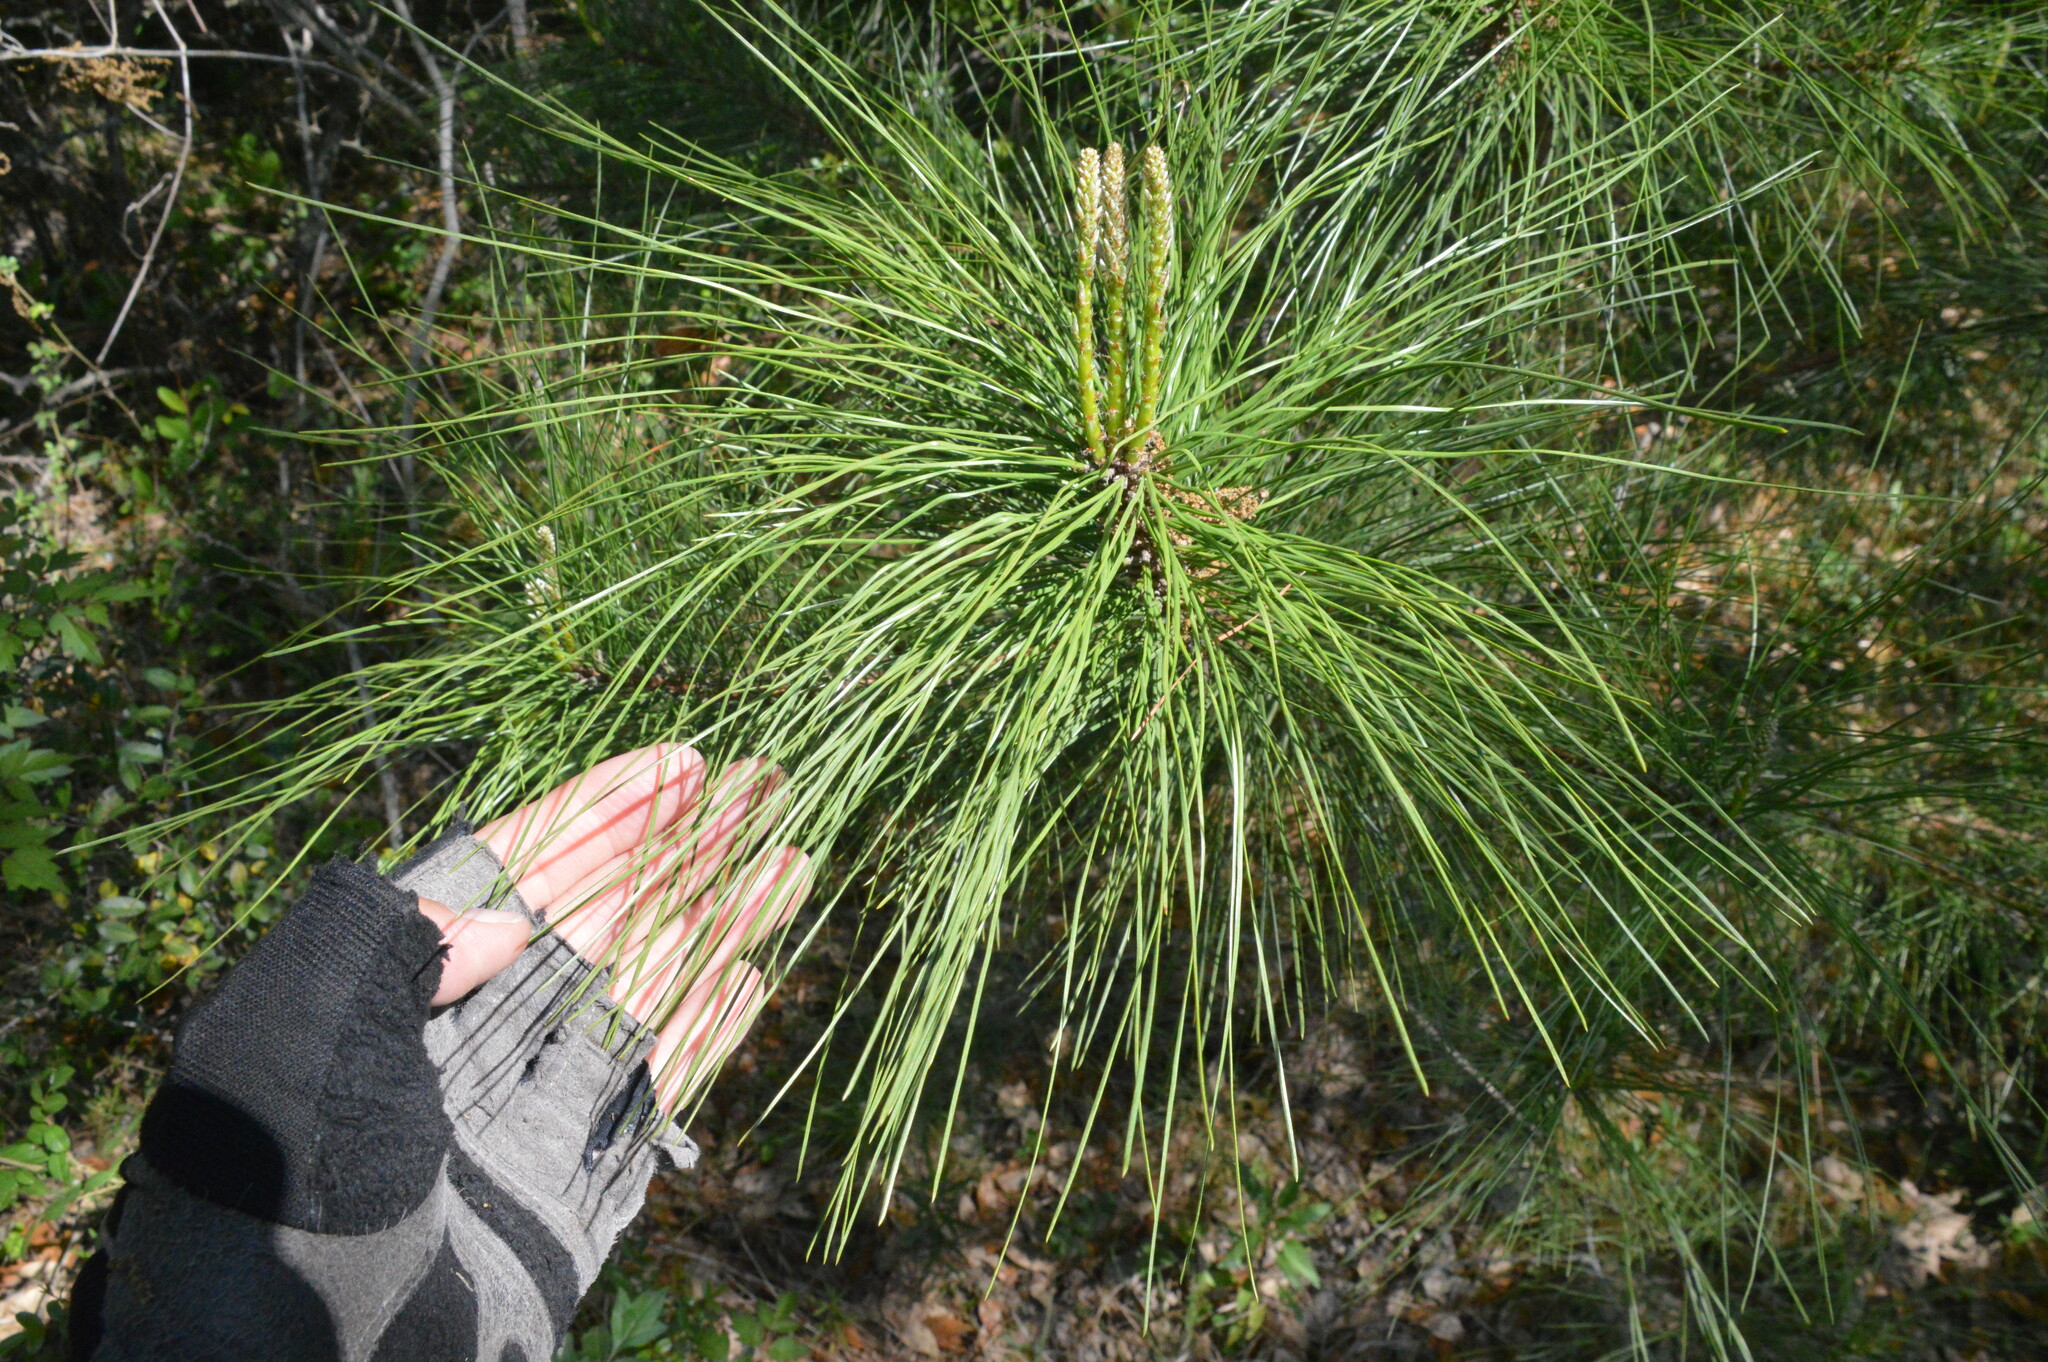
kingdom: Plantae
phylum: Tracheophyta
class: Pinopsida
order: Pinales
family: Pinaceae
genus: Pinus
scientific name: Pinus taeda
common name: Loblolly pine
